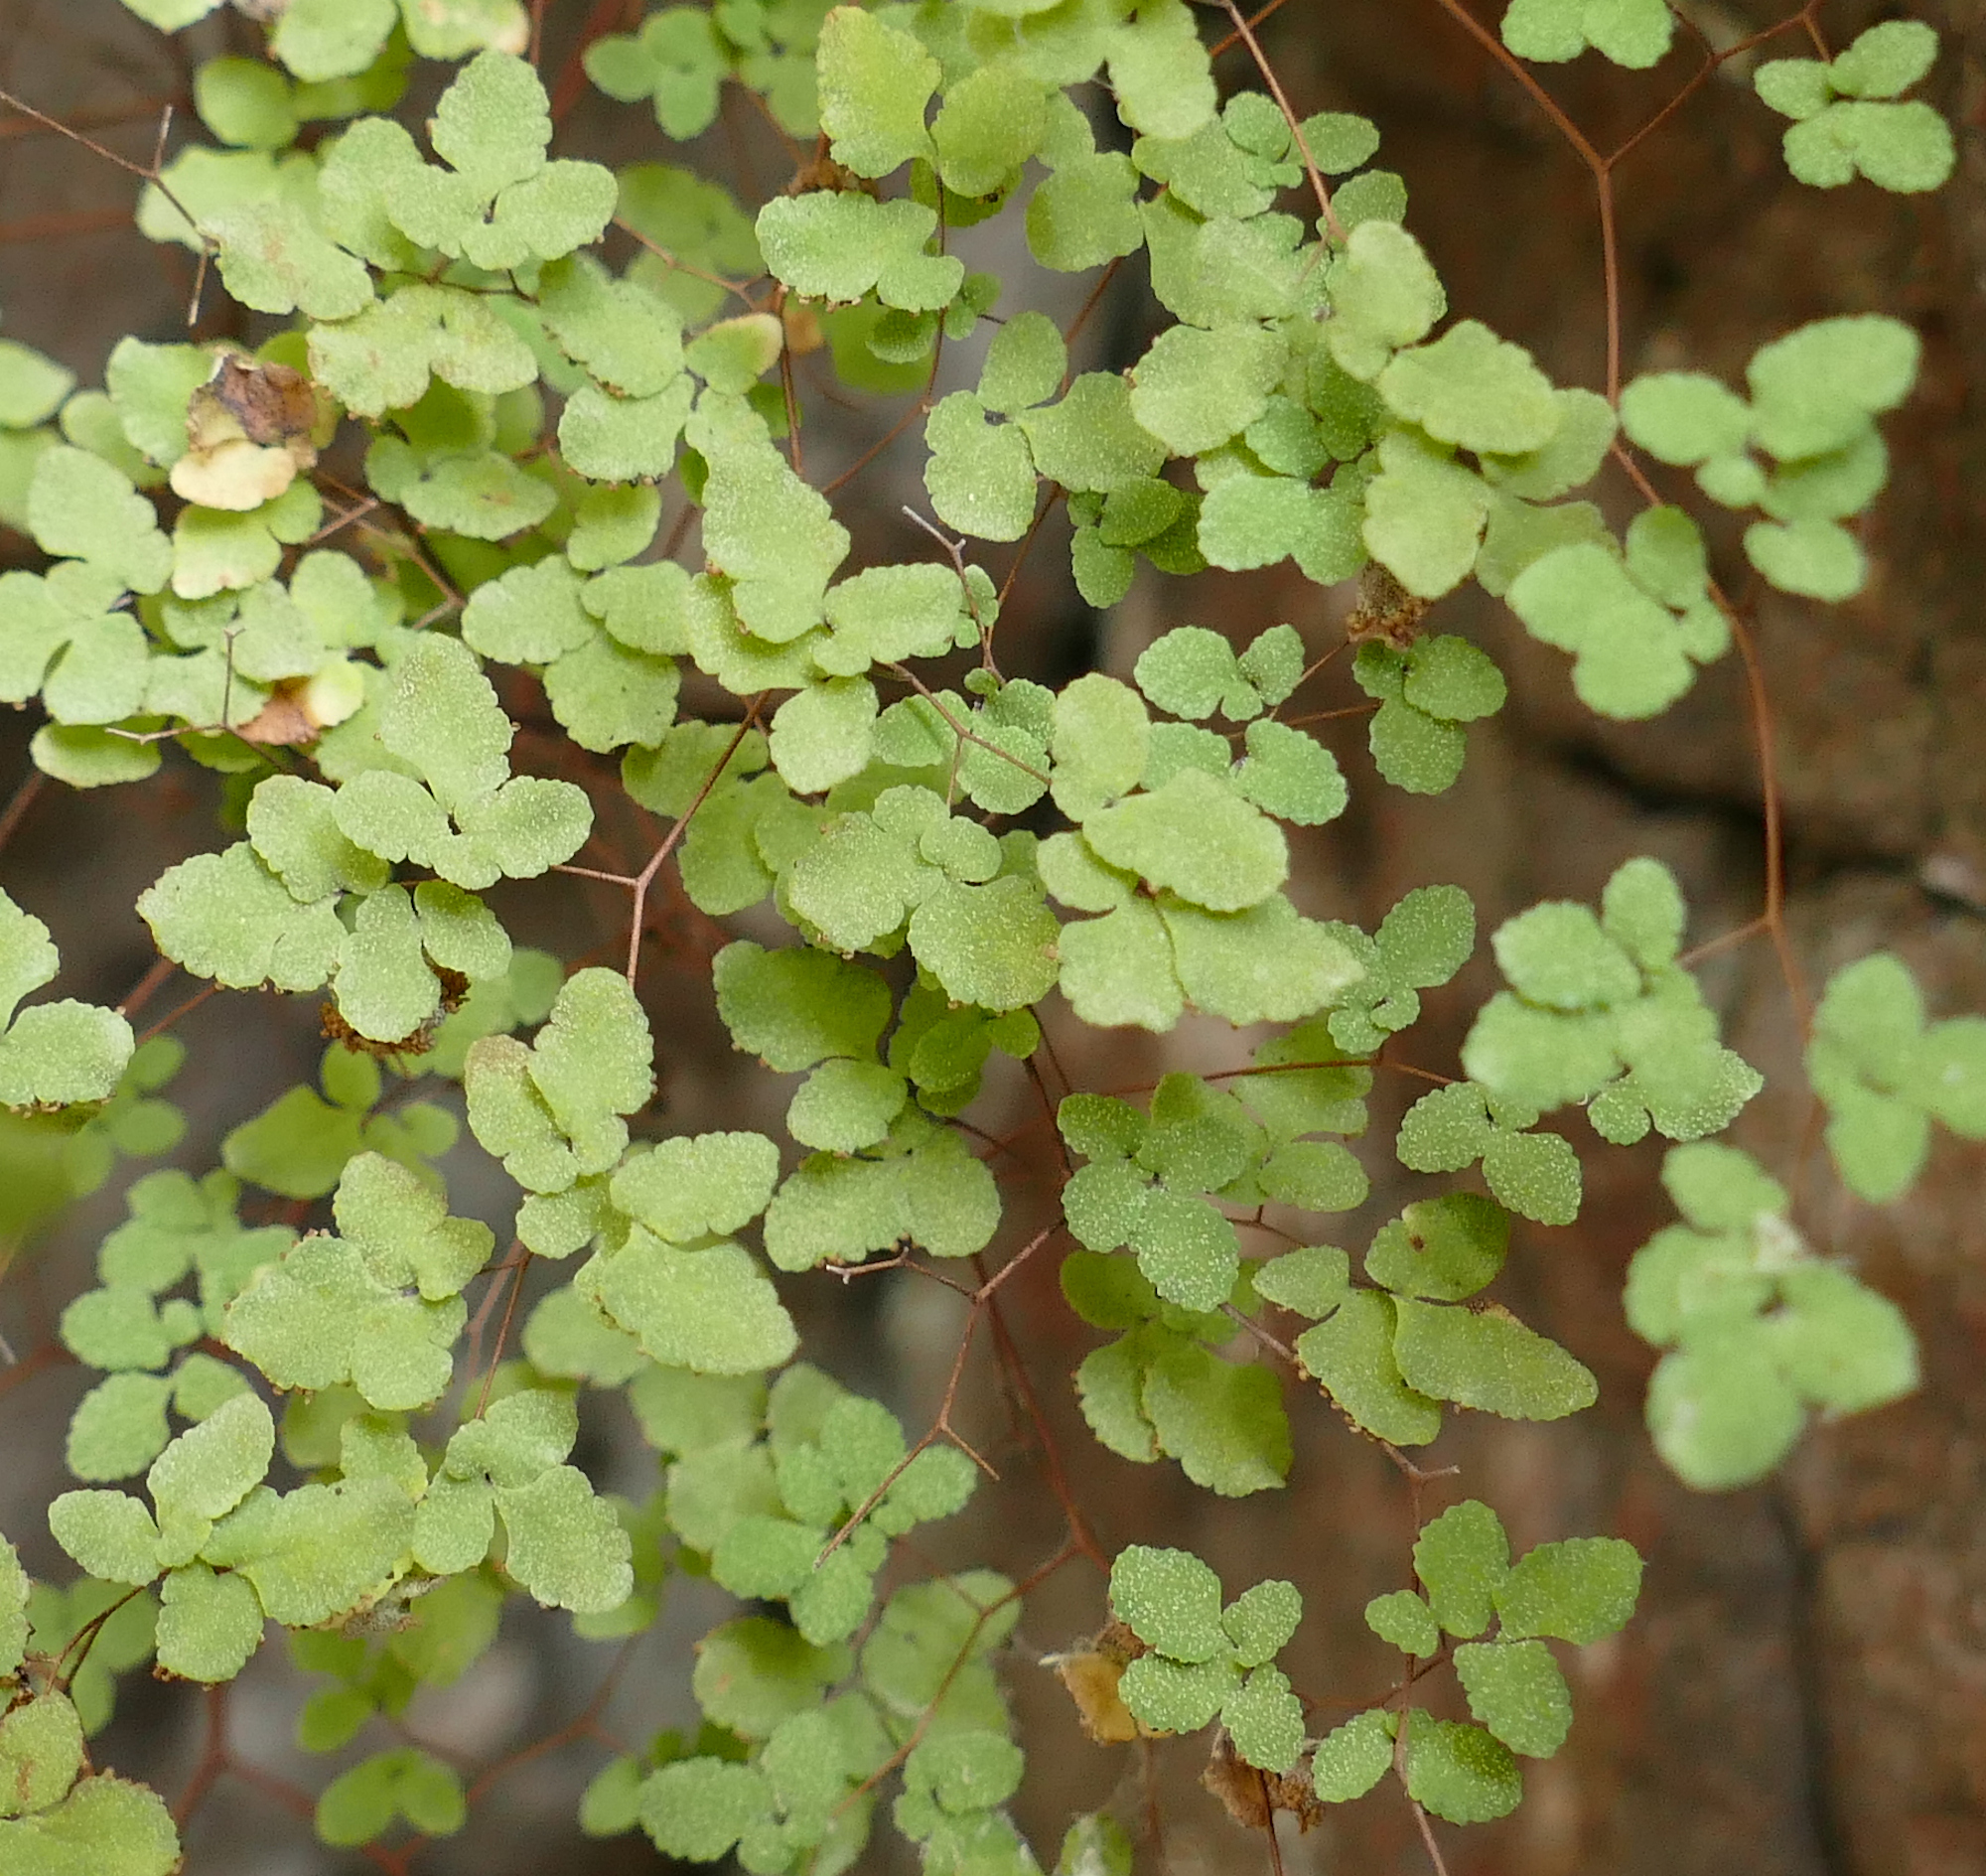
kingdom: Plantae
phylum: Tracheophyta
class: Polypodiopsida
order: Polypodiales
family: Pteridaceae
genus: Argyrochosma
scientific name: Argyrochosma fendleri
